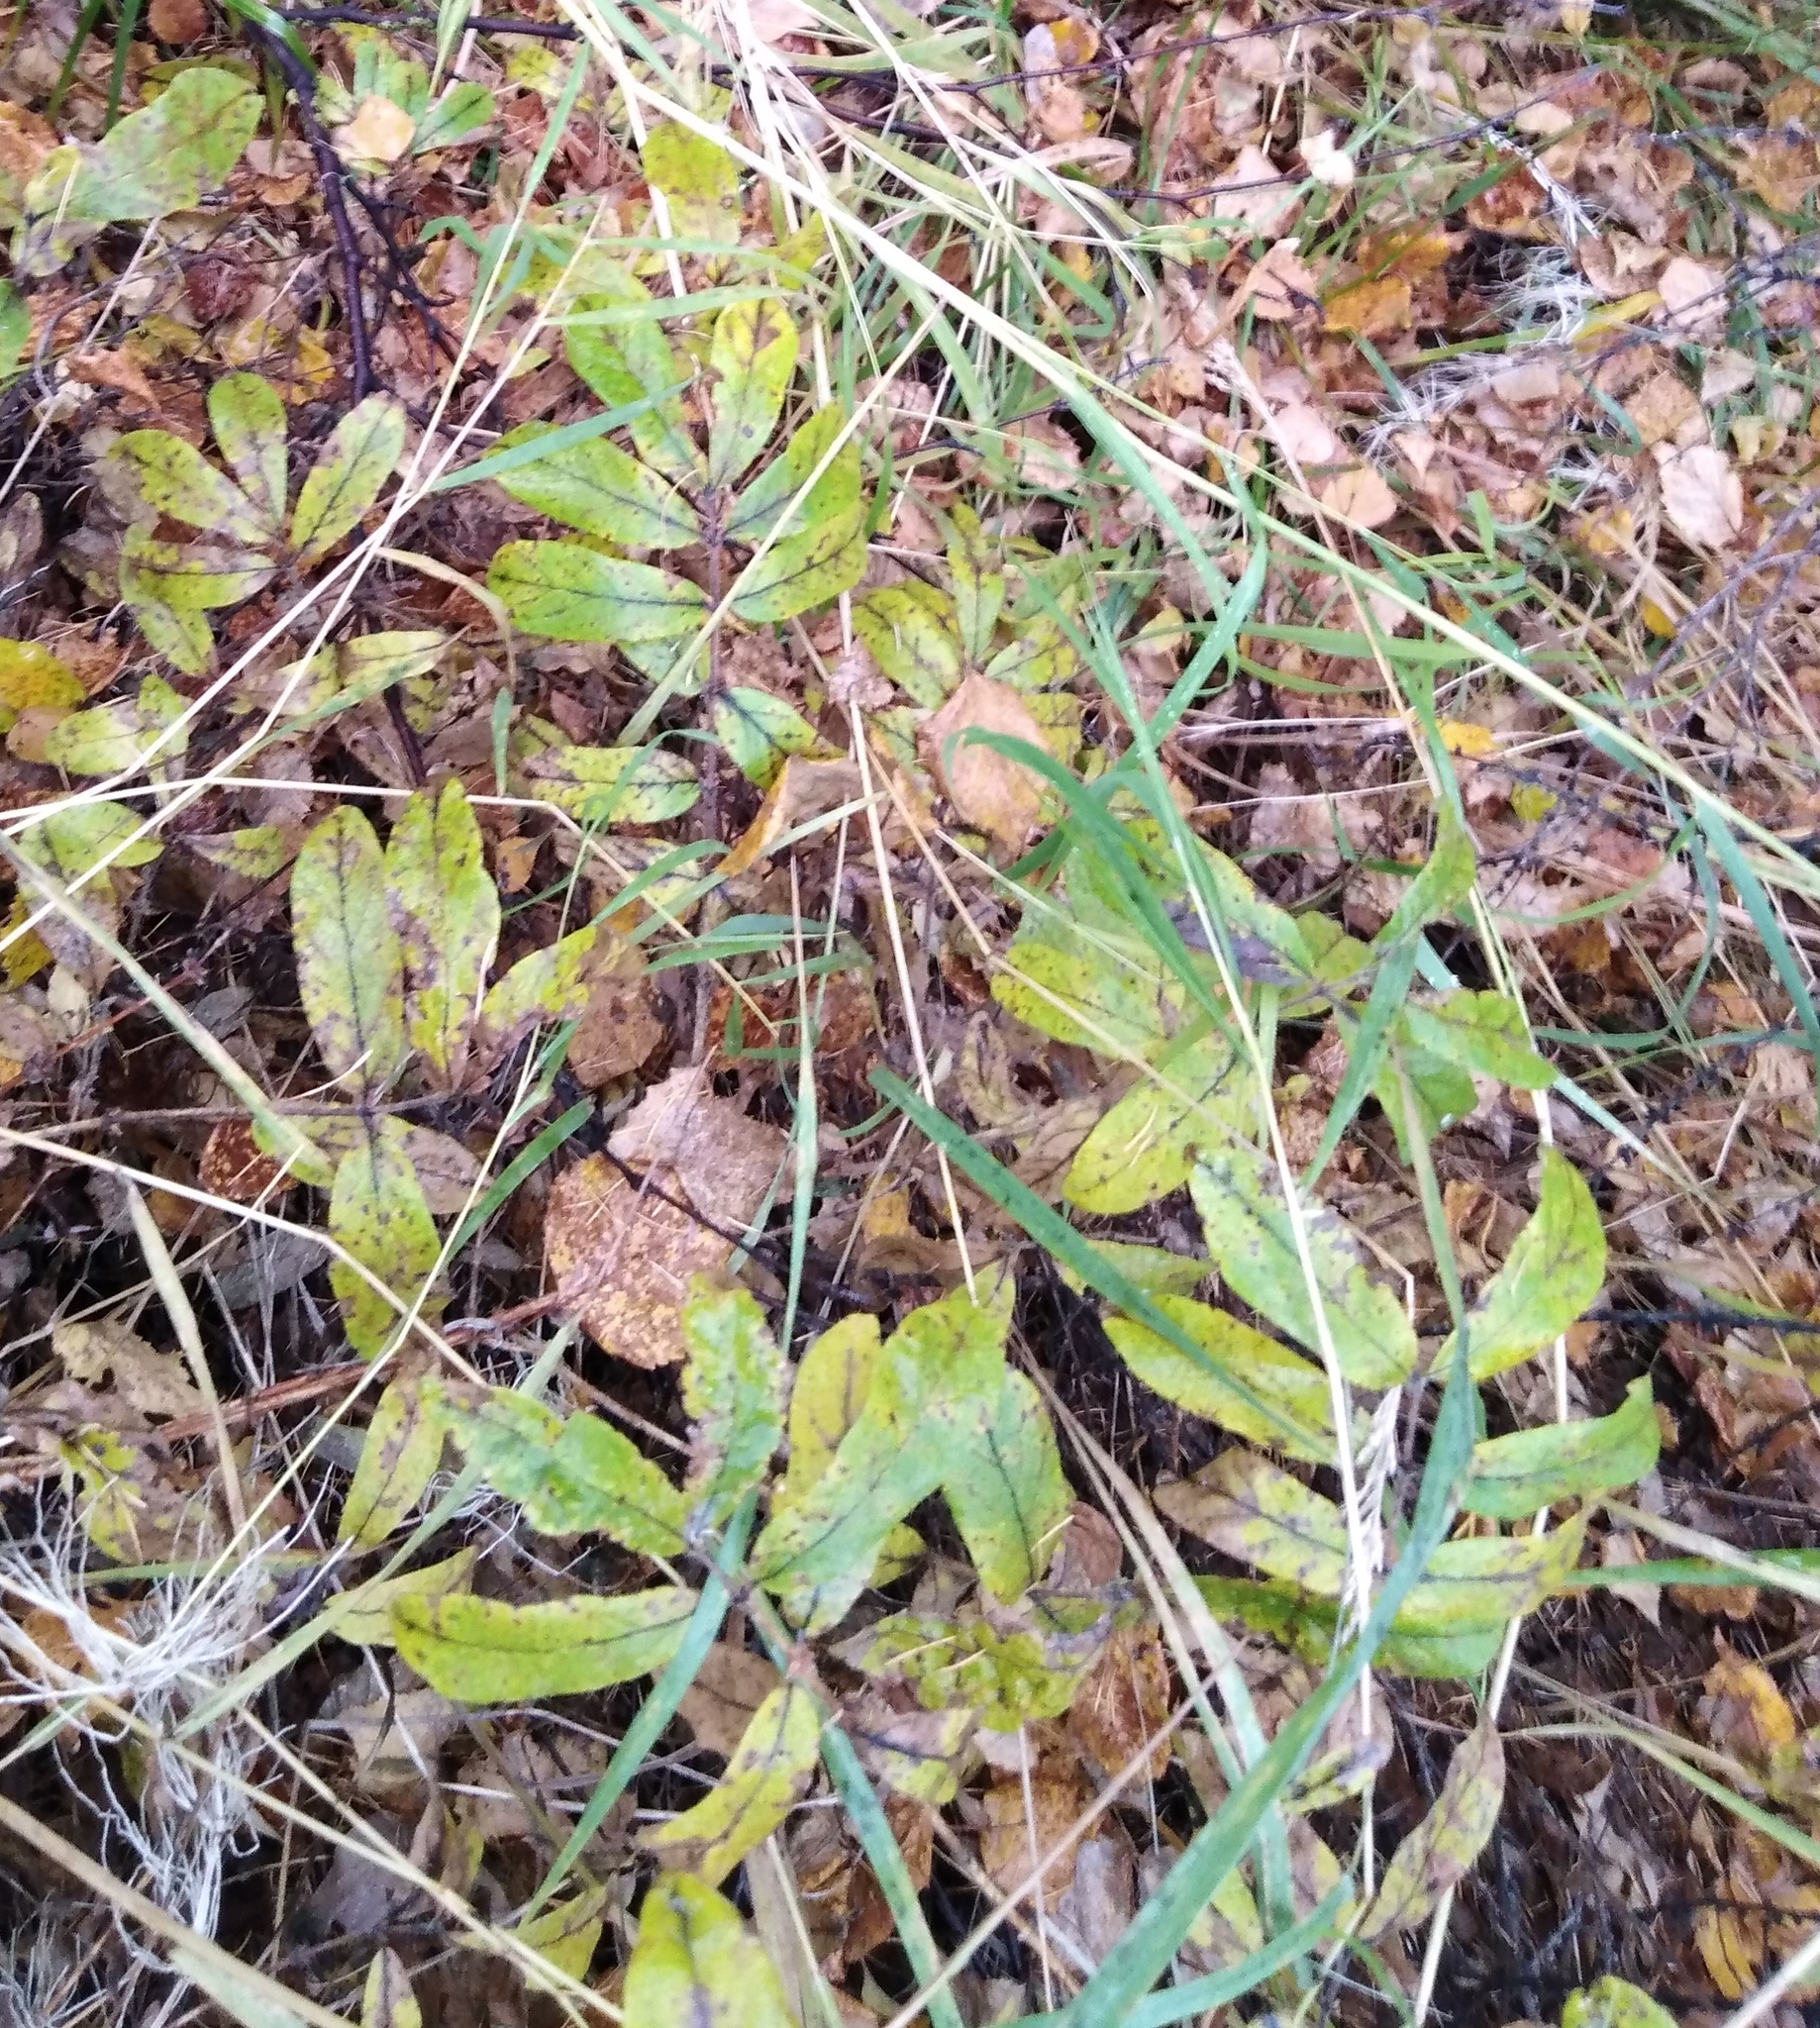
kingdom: Plantae
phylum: Tracheophyta
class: Magnoliopsida
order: Dipsacales
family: Caprifoliaceae
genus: Lonicera
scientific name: Lonicera caerulea
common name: Blue honeysuckle
